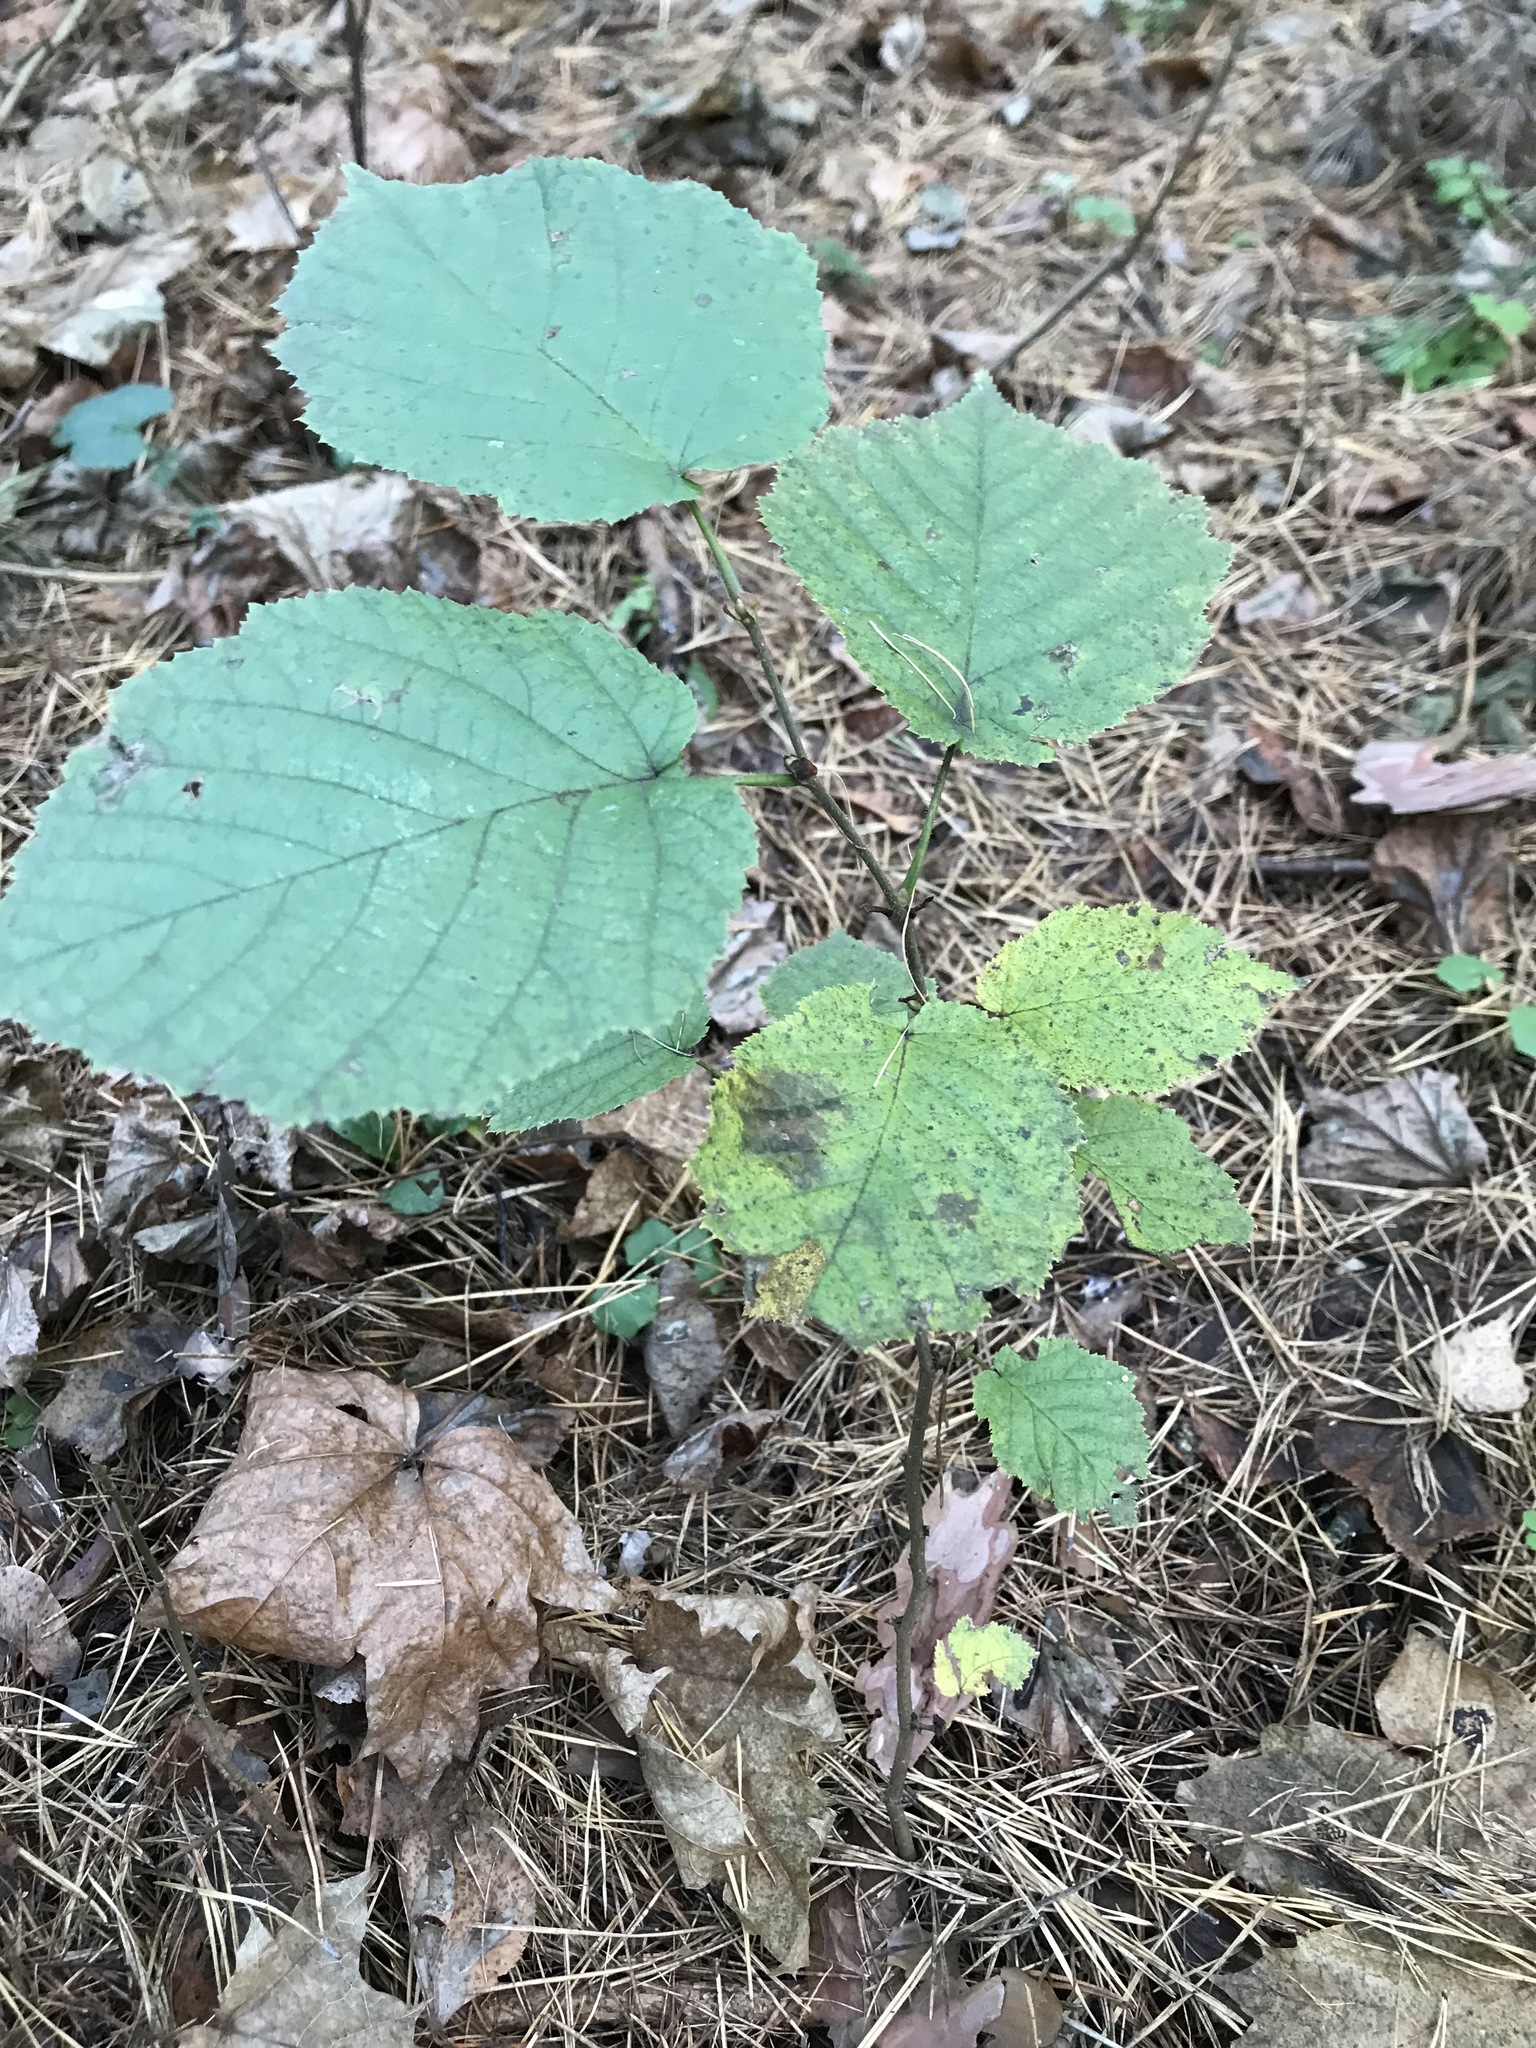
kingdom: Plantae
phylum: Tracheophyta
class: Magnoliopsida
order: Fagales
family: Betulaceae
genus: Corylus
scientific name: Corylus avellana
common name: European hazel
